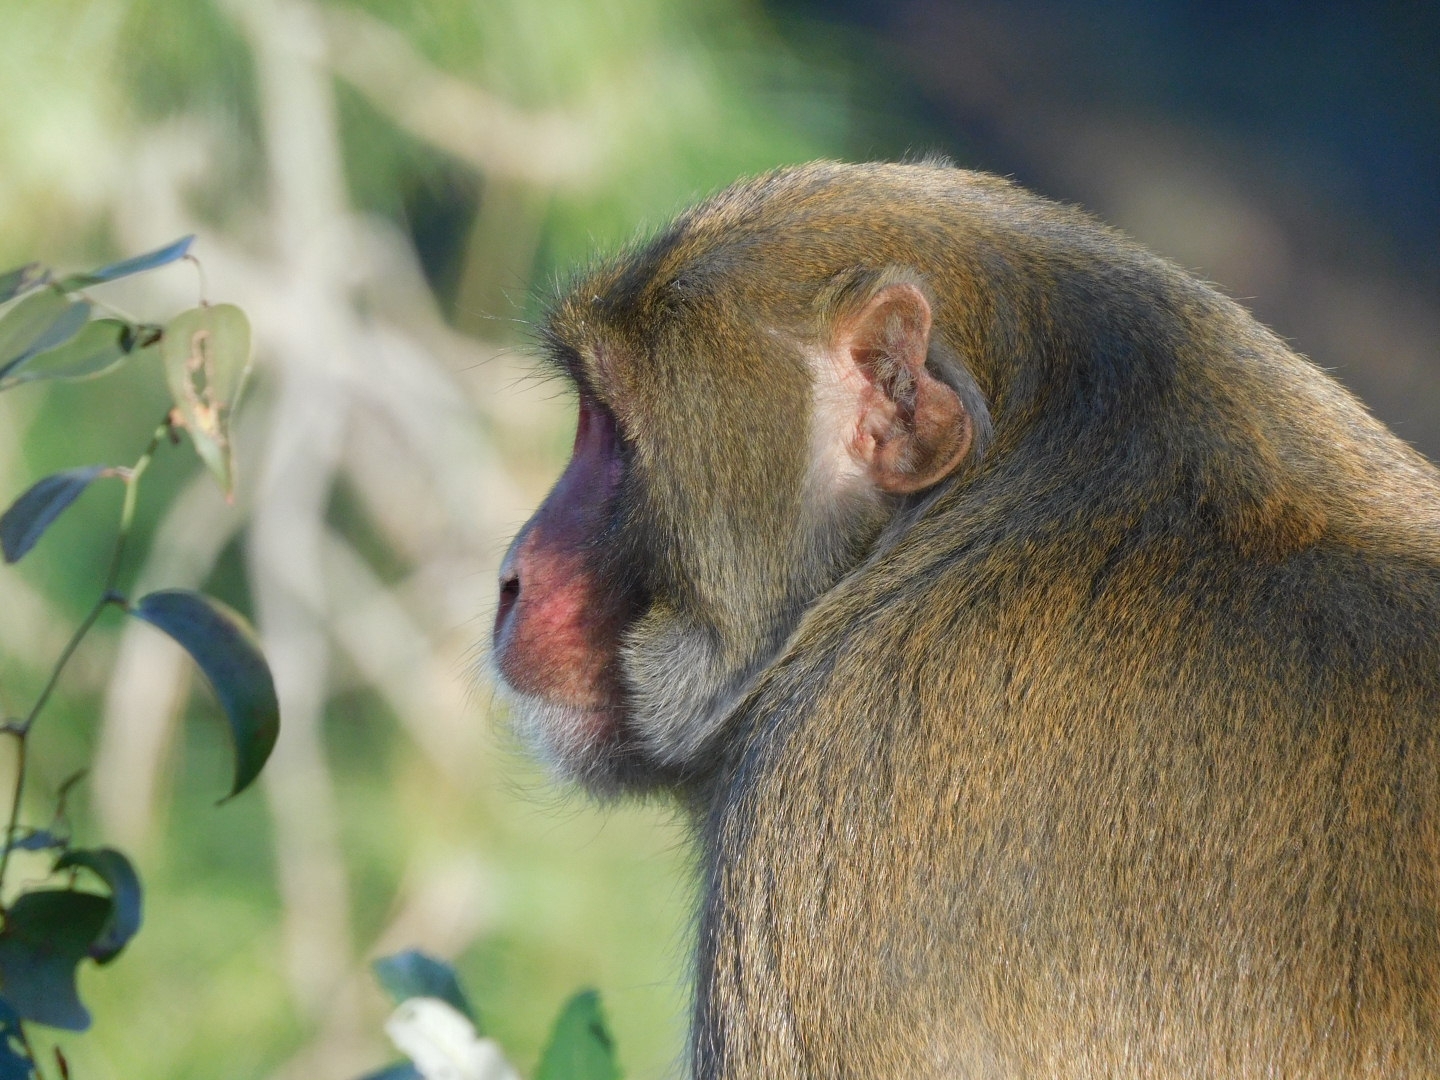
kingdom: Animalia
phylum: Chordata
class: Mammalia
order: Primates
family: Cercopithecidae
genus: Macaca
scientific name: Macaca mulatta
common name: Rhesus monkey
